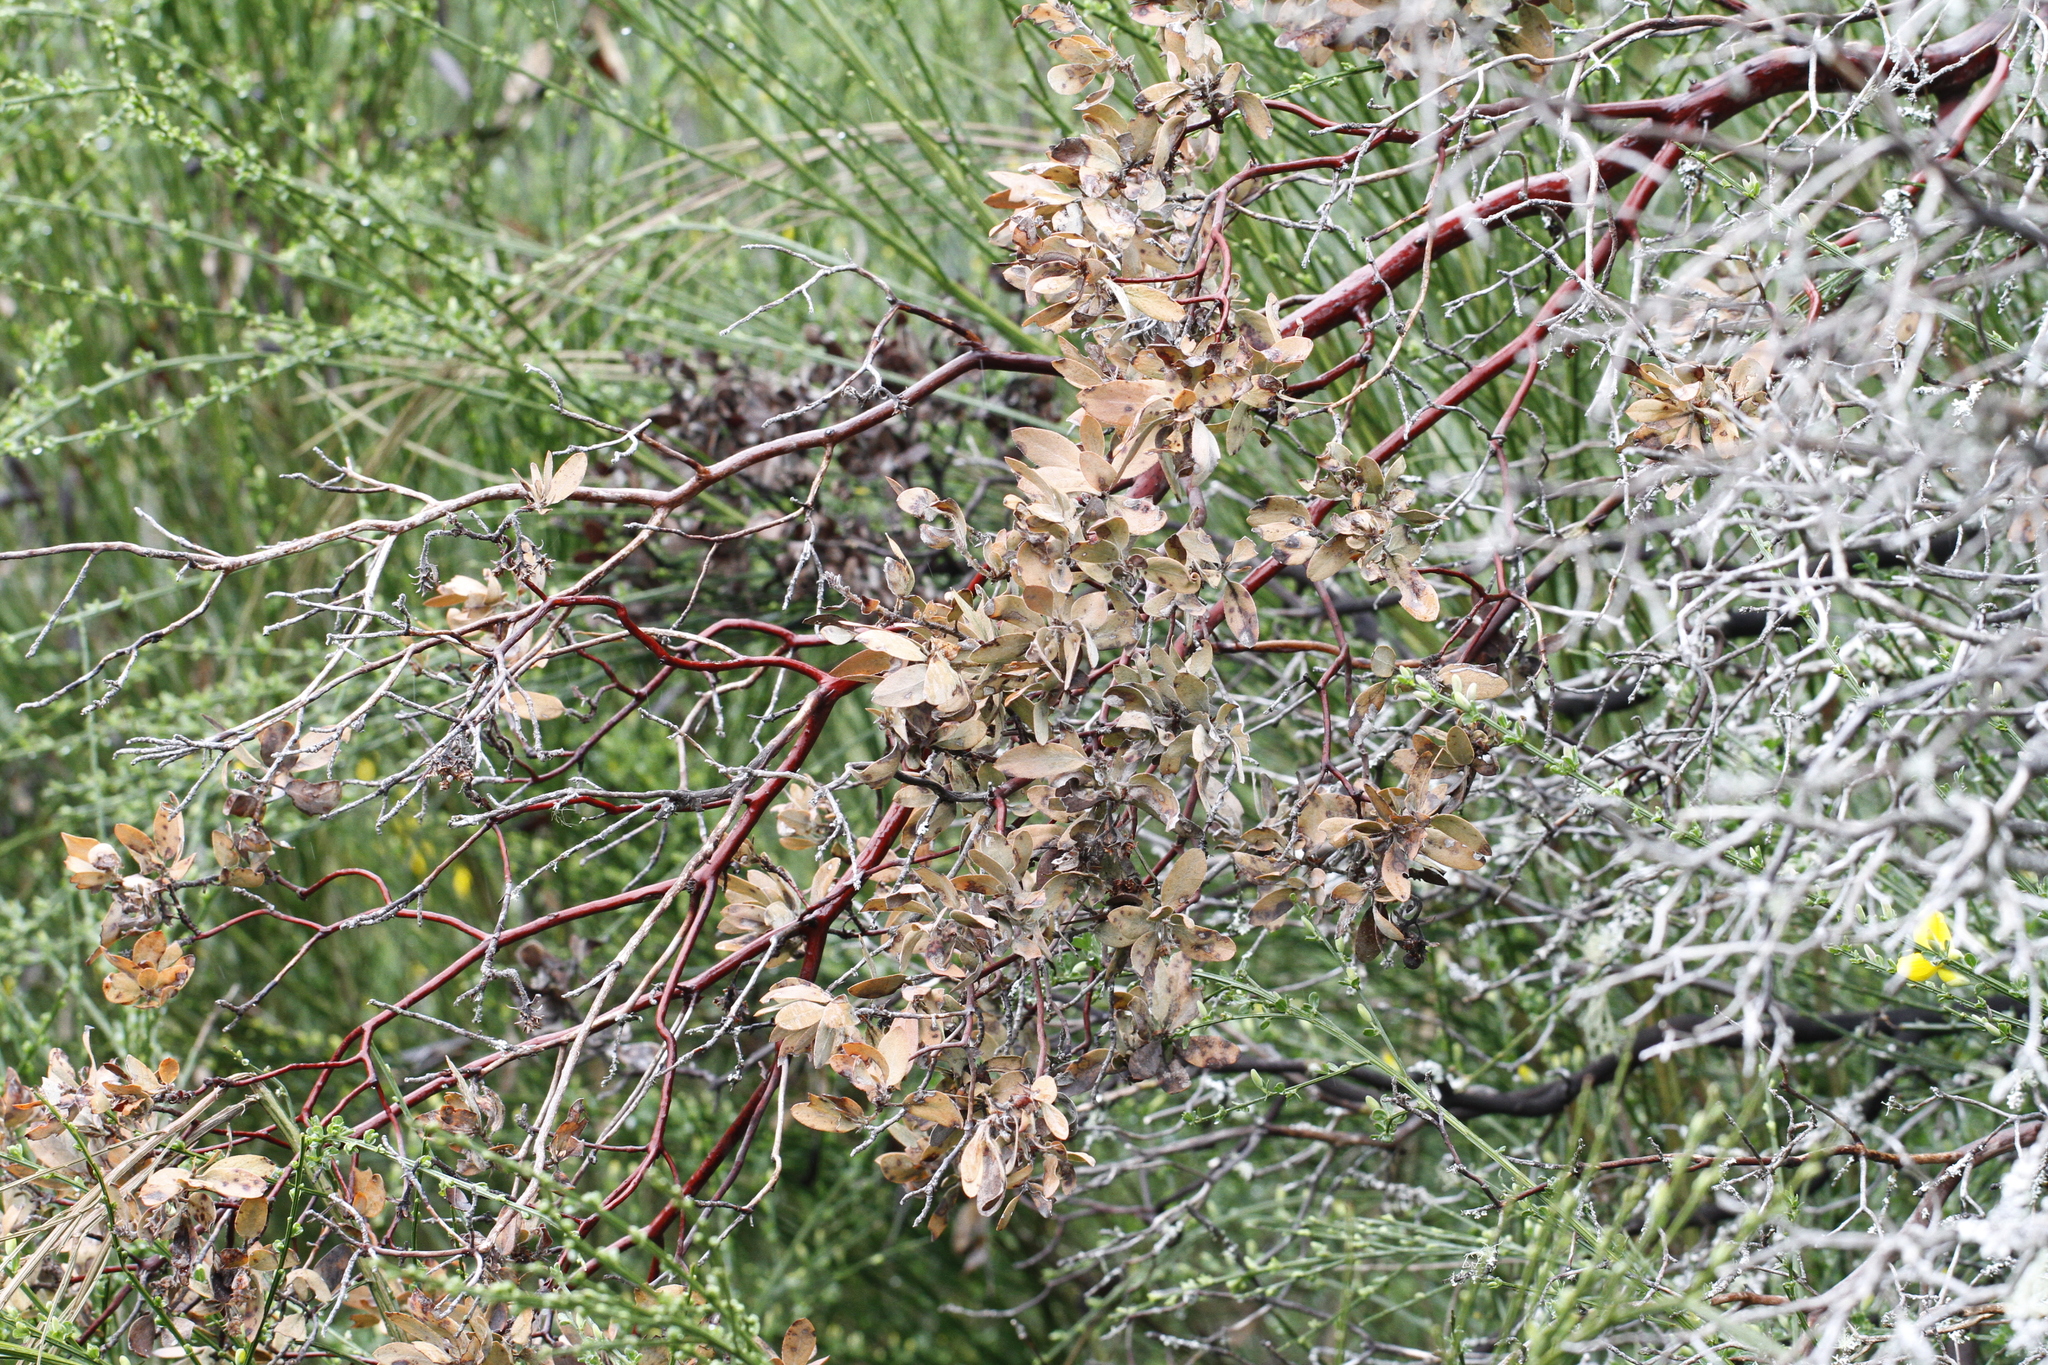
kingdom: Plantae
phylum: Tracheophyta
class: Magnoliopsida
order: Ericales
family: Ericaceae
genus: Arctostaphylos
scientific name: Arctostaphylos columbiana
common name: Bristly bearberry
